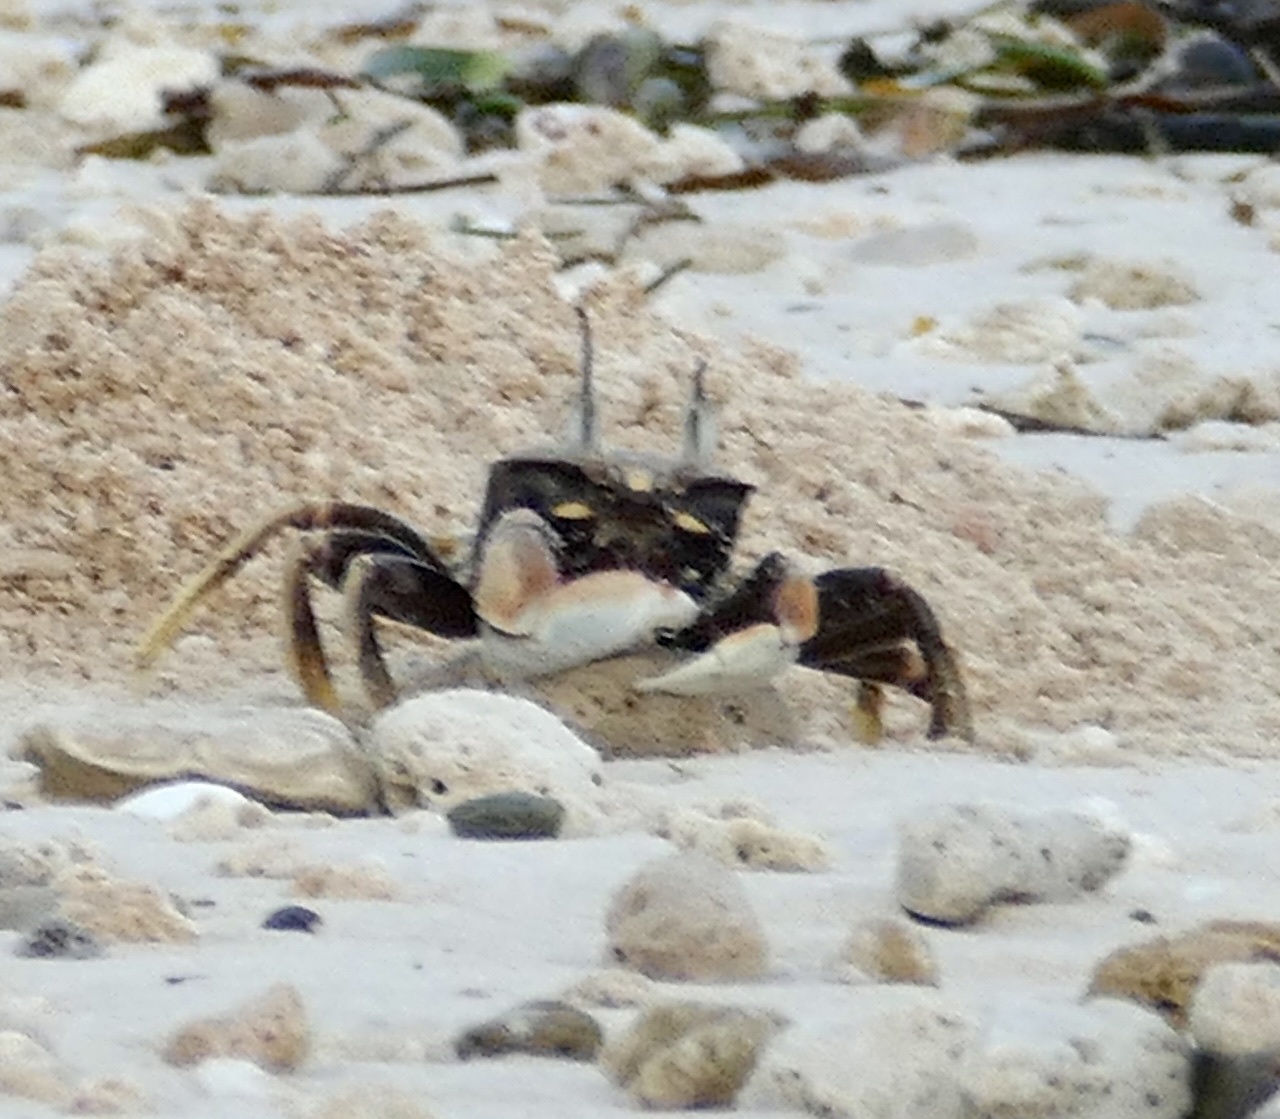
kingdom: Animalia
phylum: Arthropoda
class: Malacostraca
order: Decapoda
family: Ocypodidae
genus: Ocypode
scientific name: Ocypode ceratophthalmus
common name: Indo-pacific ghost crab
